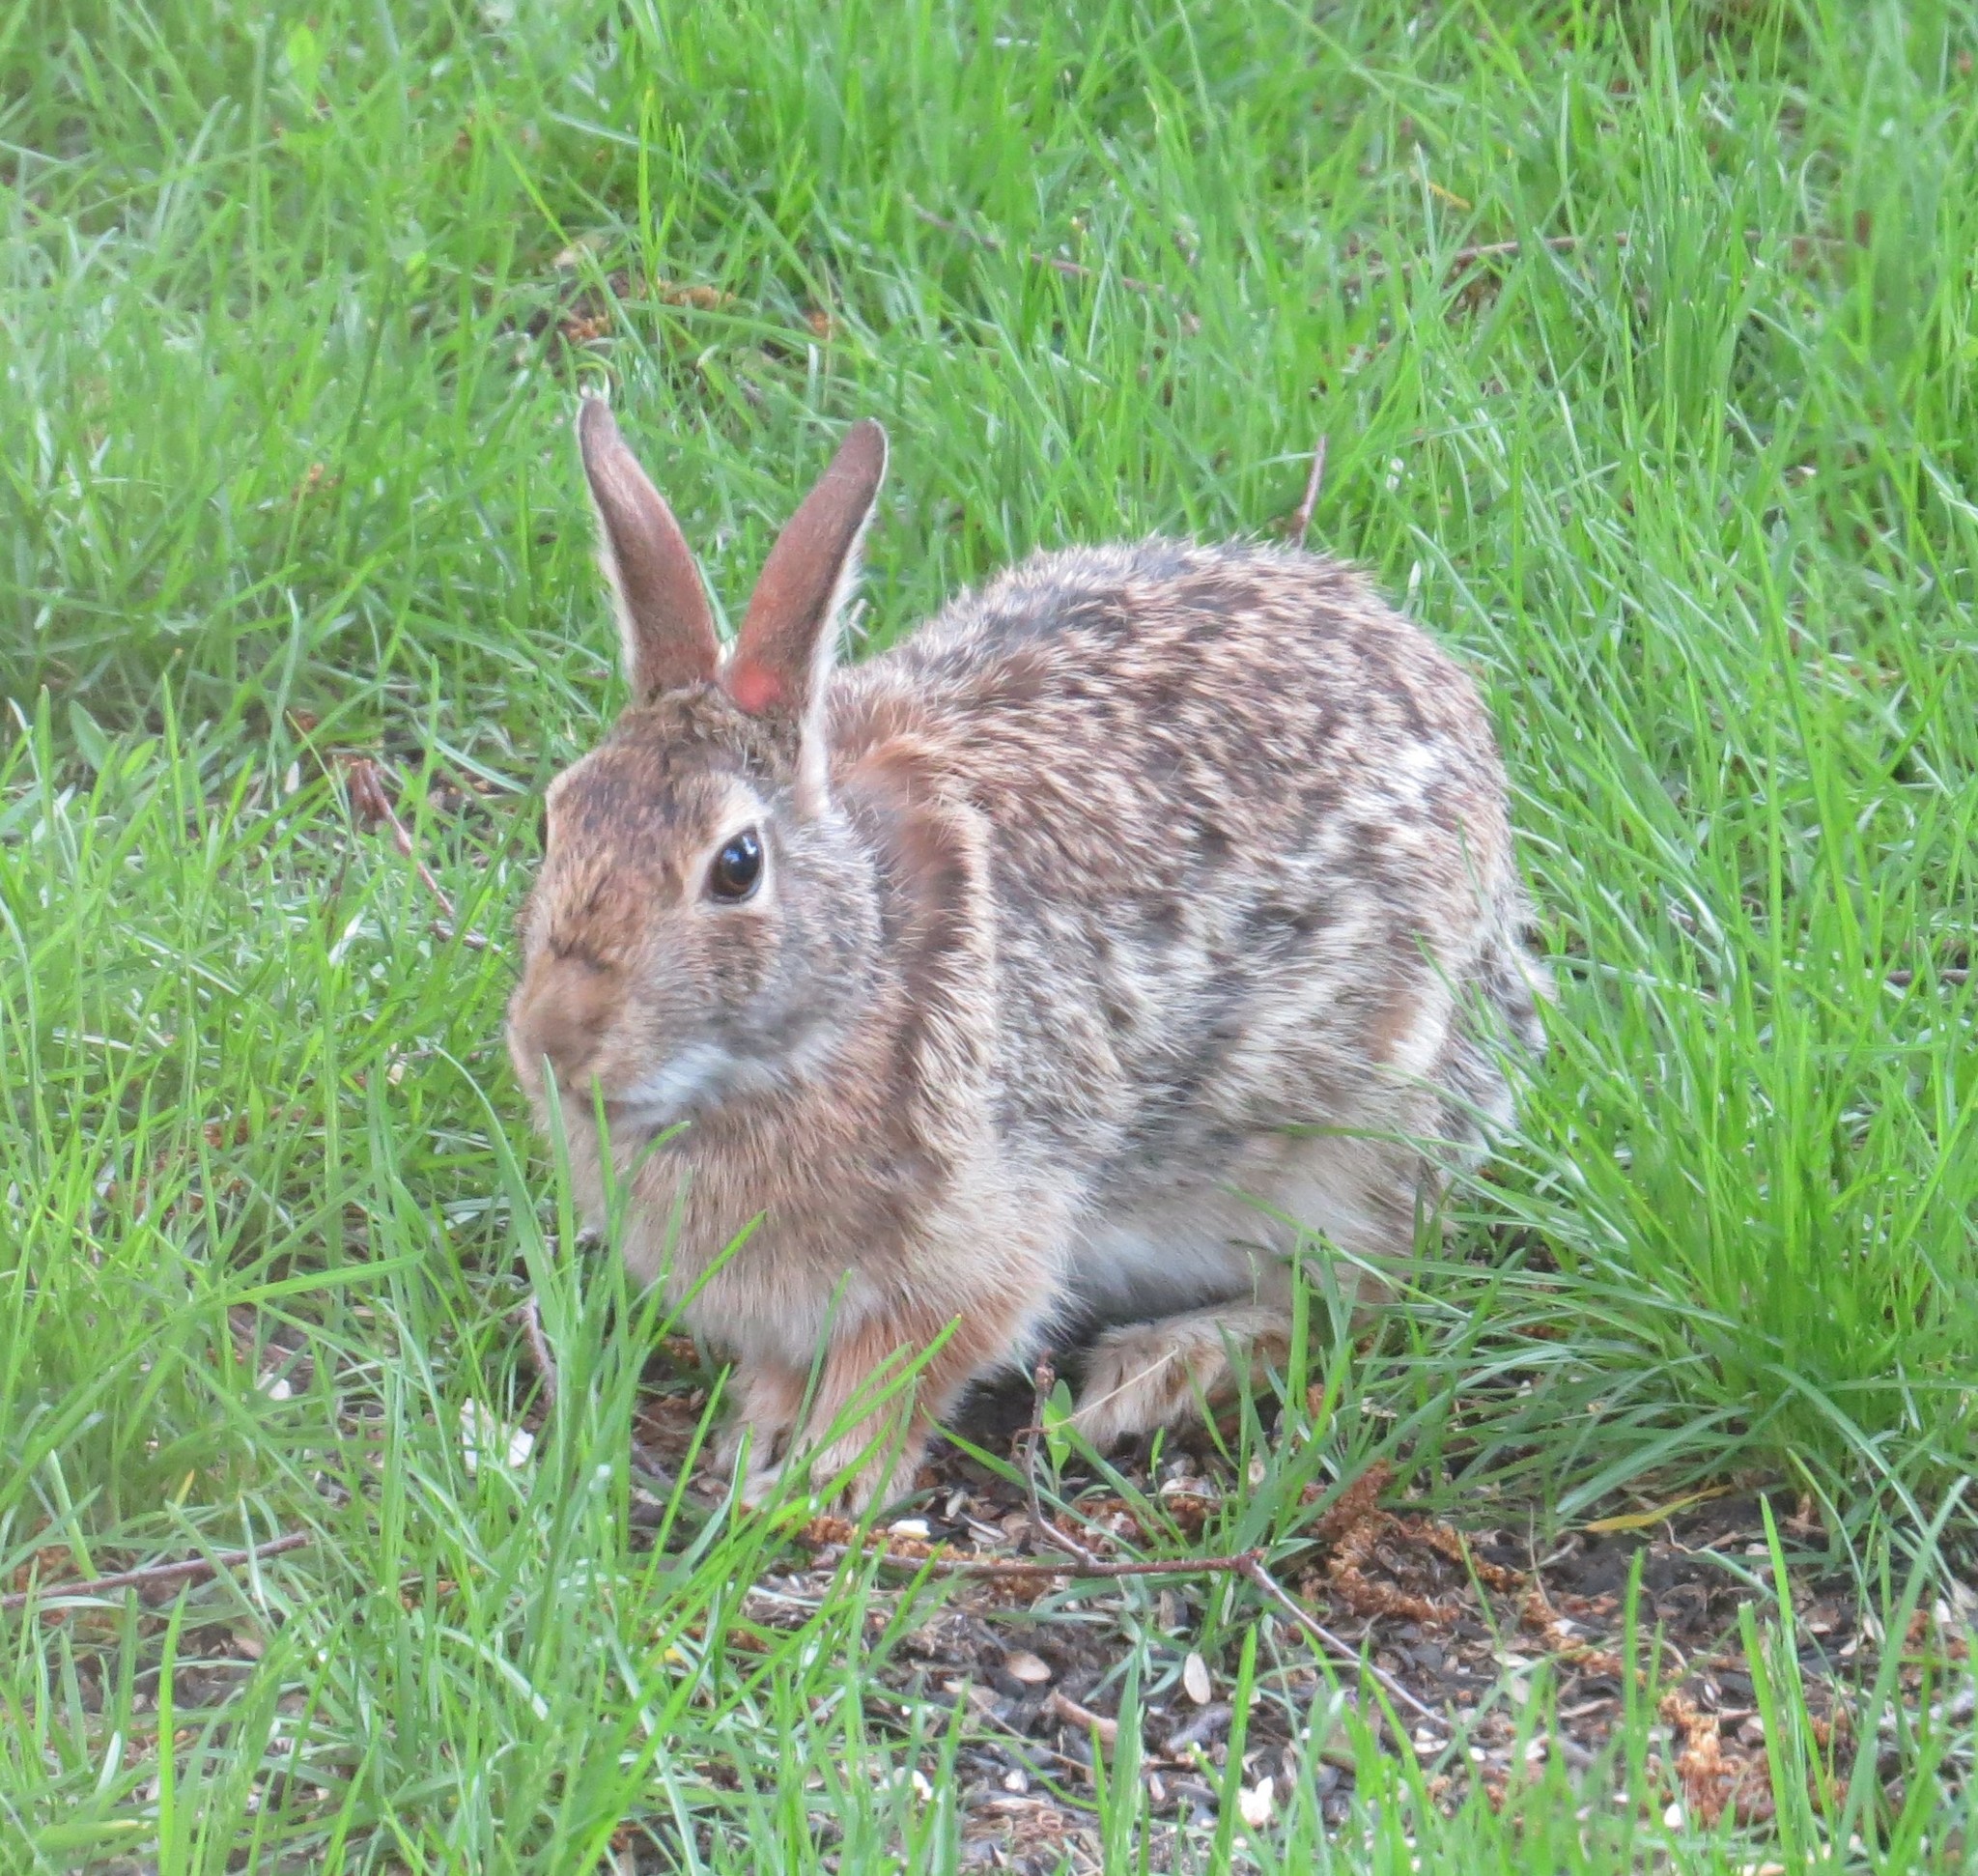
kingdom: Animalia
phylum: Chordata
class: Mammalia
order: Lagomorpha
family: Leporidae
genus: Sylvilagus
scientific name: Sylvilagus floridanus
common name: Eastern cottontail
